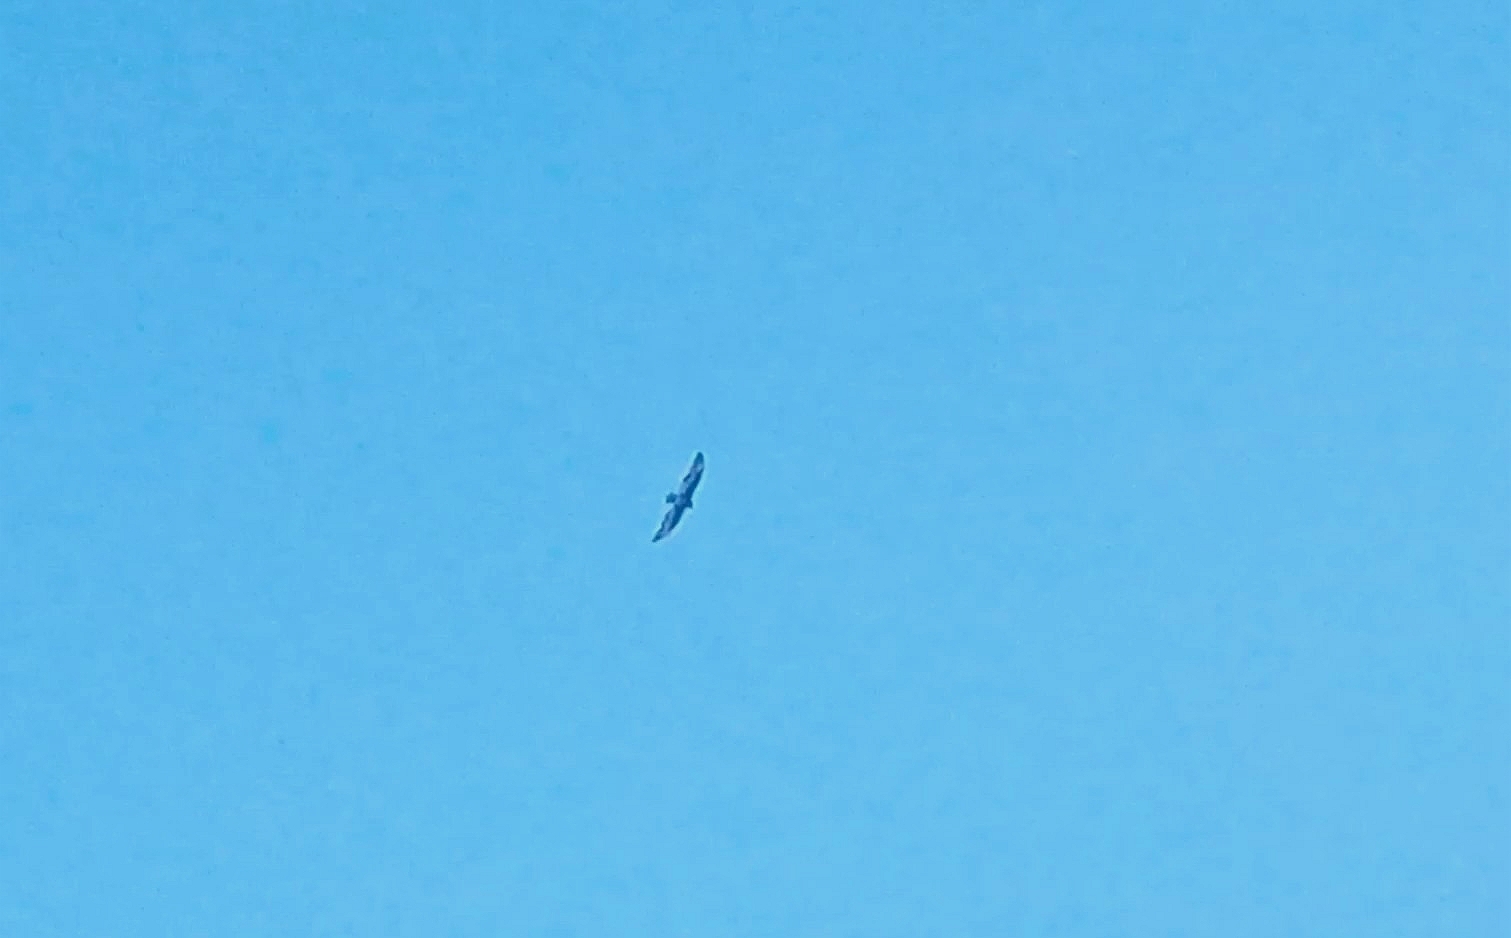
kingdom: Animalia
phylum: Chordata
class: Aves
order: Accipitriformes
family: Cathartidae
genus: Cathartes
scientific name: Cathartes aura
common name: Turkey vulture
